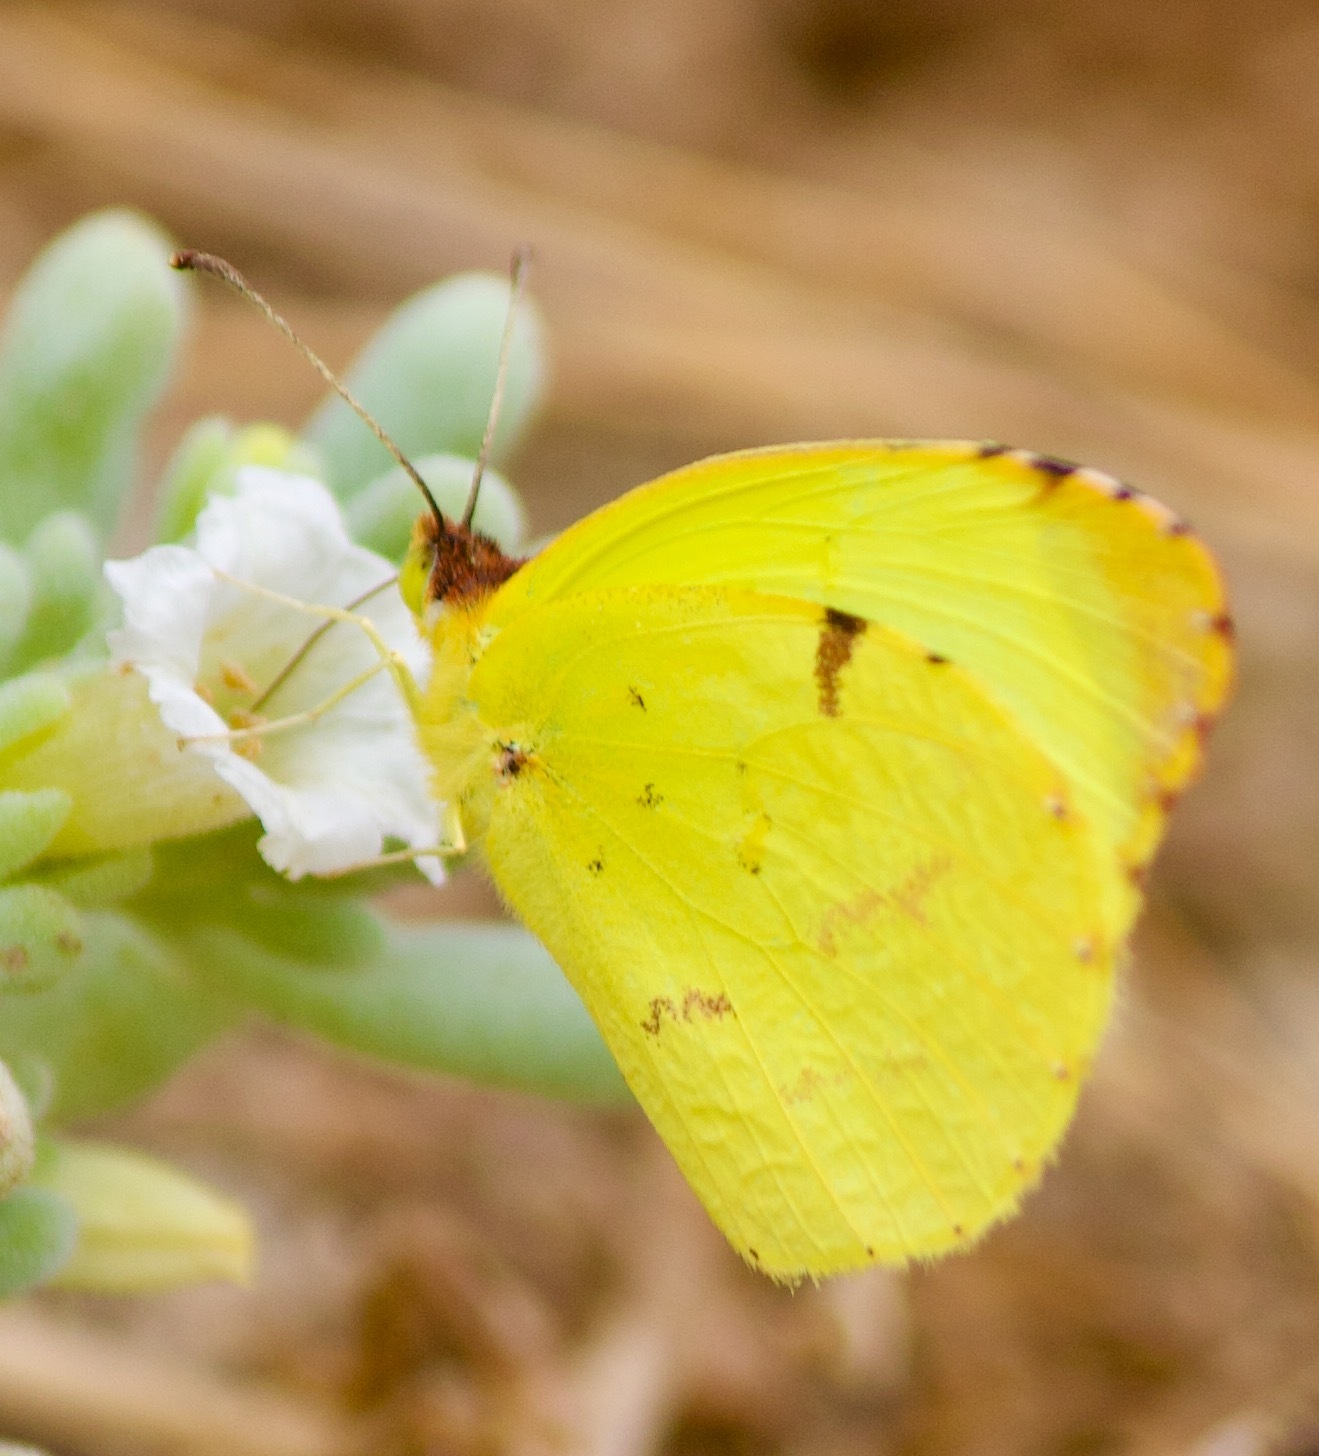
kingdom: Animalia
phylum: Arthropoda
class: Insecta
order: Lepidoptera
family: Pieridae
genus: Teriocolias
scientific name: Teriocolias
